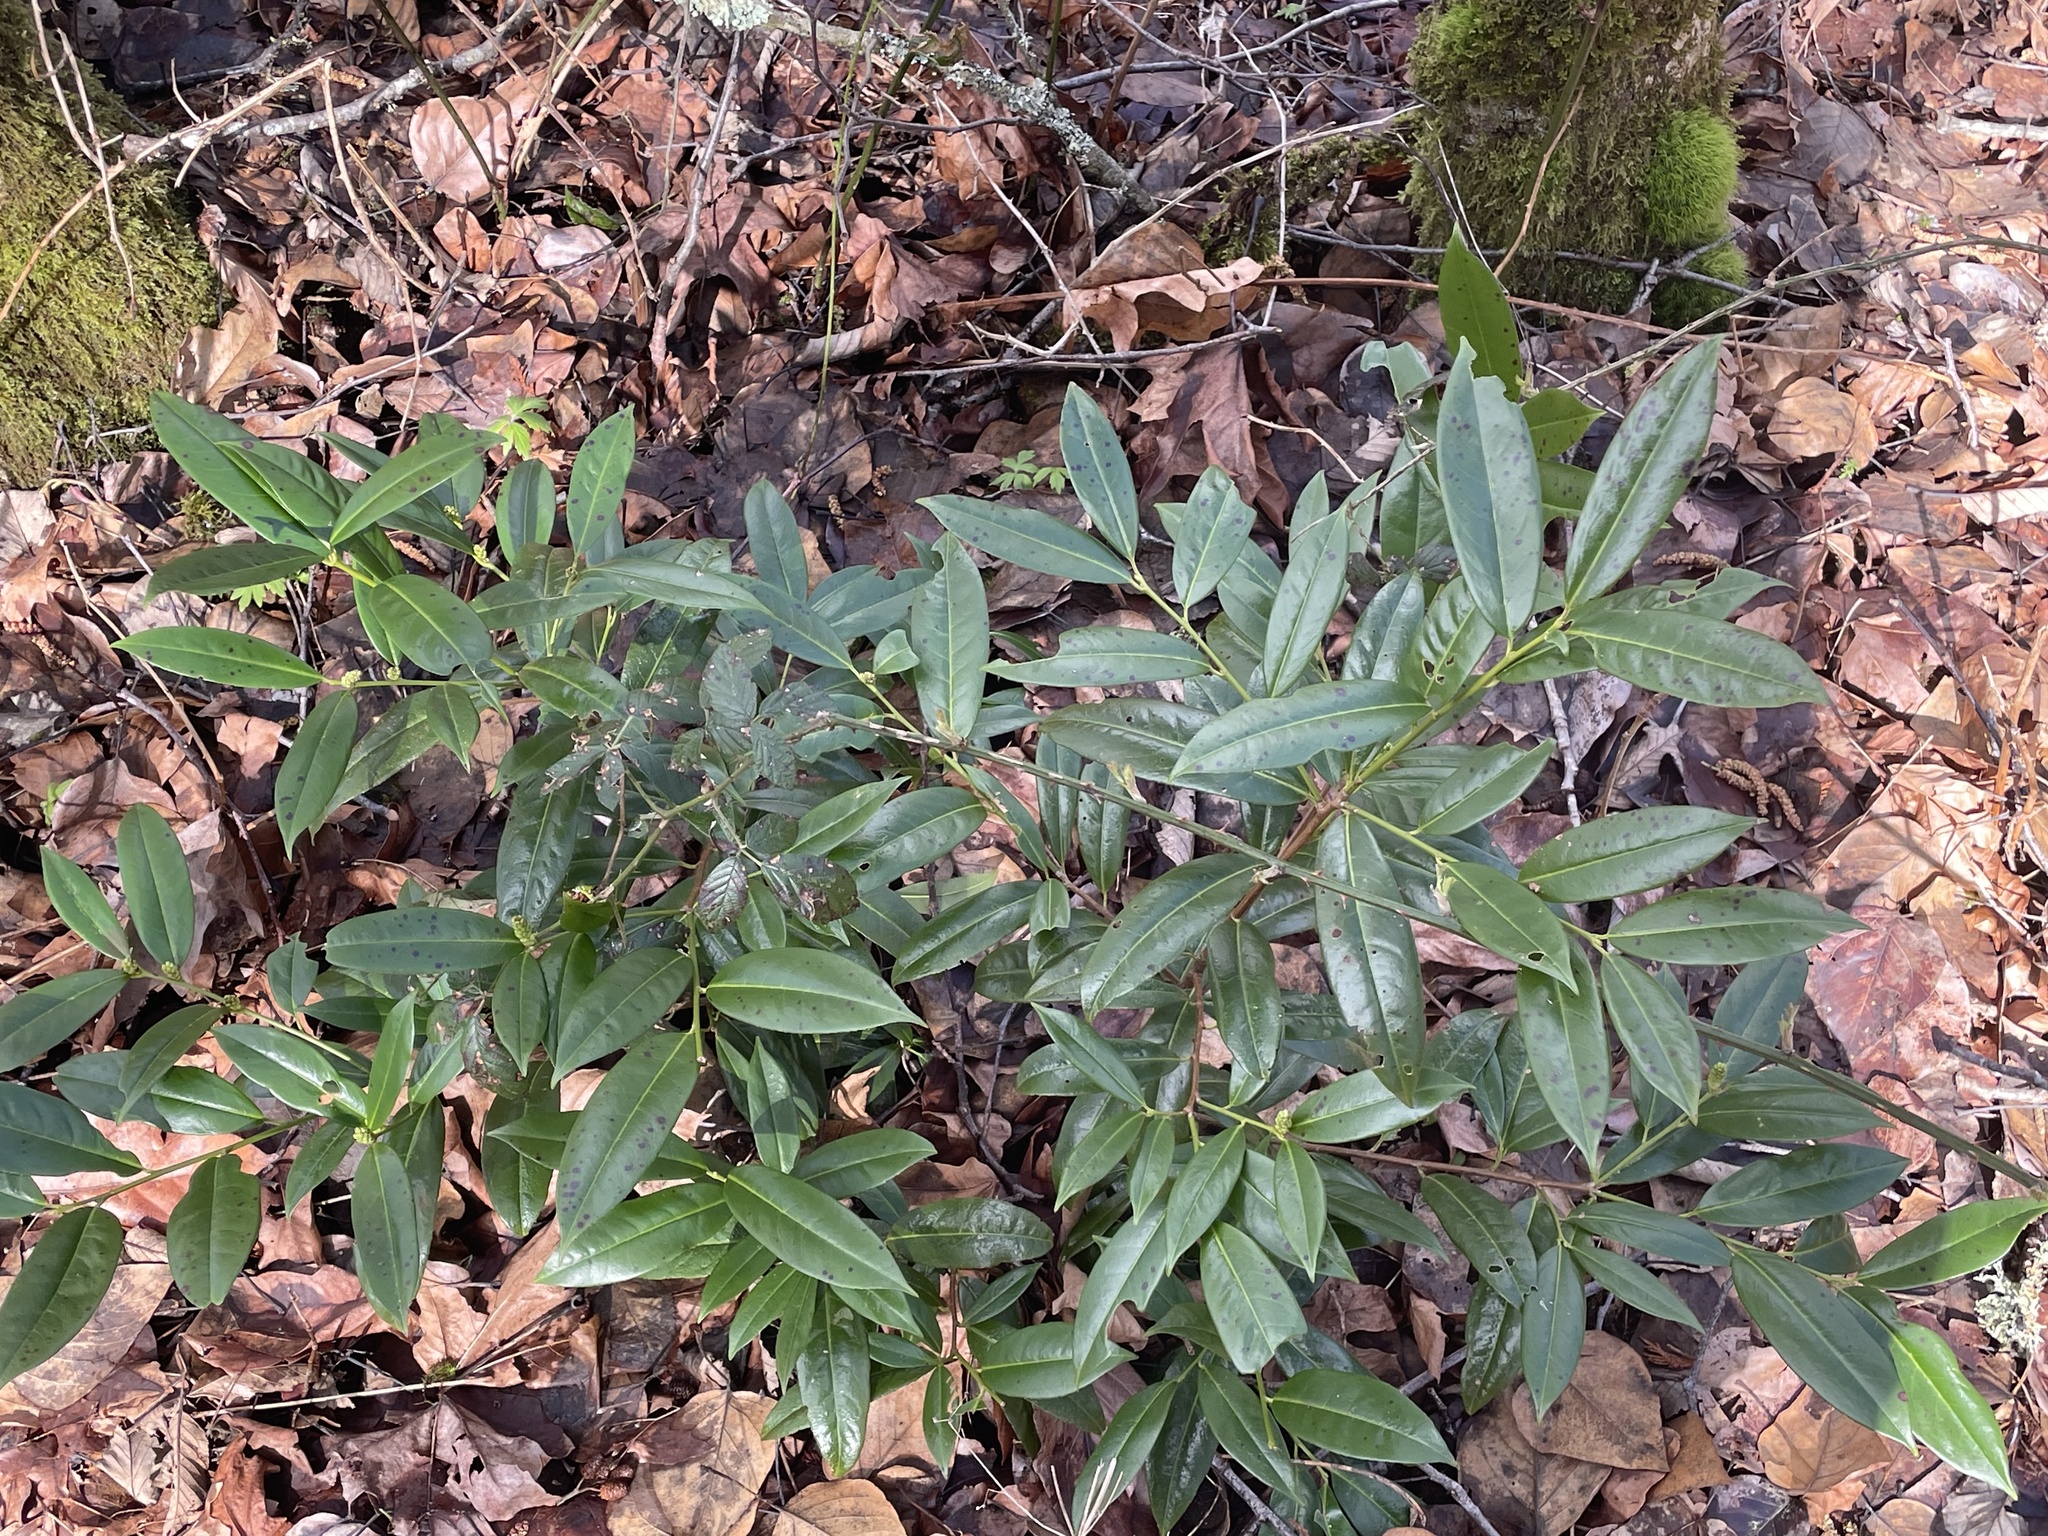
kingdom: Plantae
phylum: Tracheophyta
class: Magnoliopsida
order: Rosales
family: Rosaceae
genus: Prunus
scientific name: Prunus laurocerasus
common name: Cherry laurel
